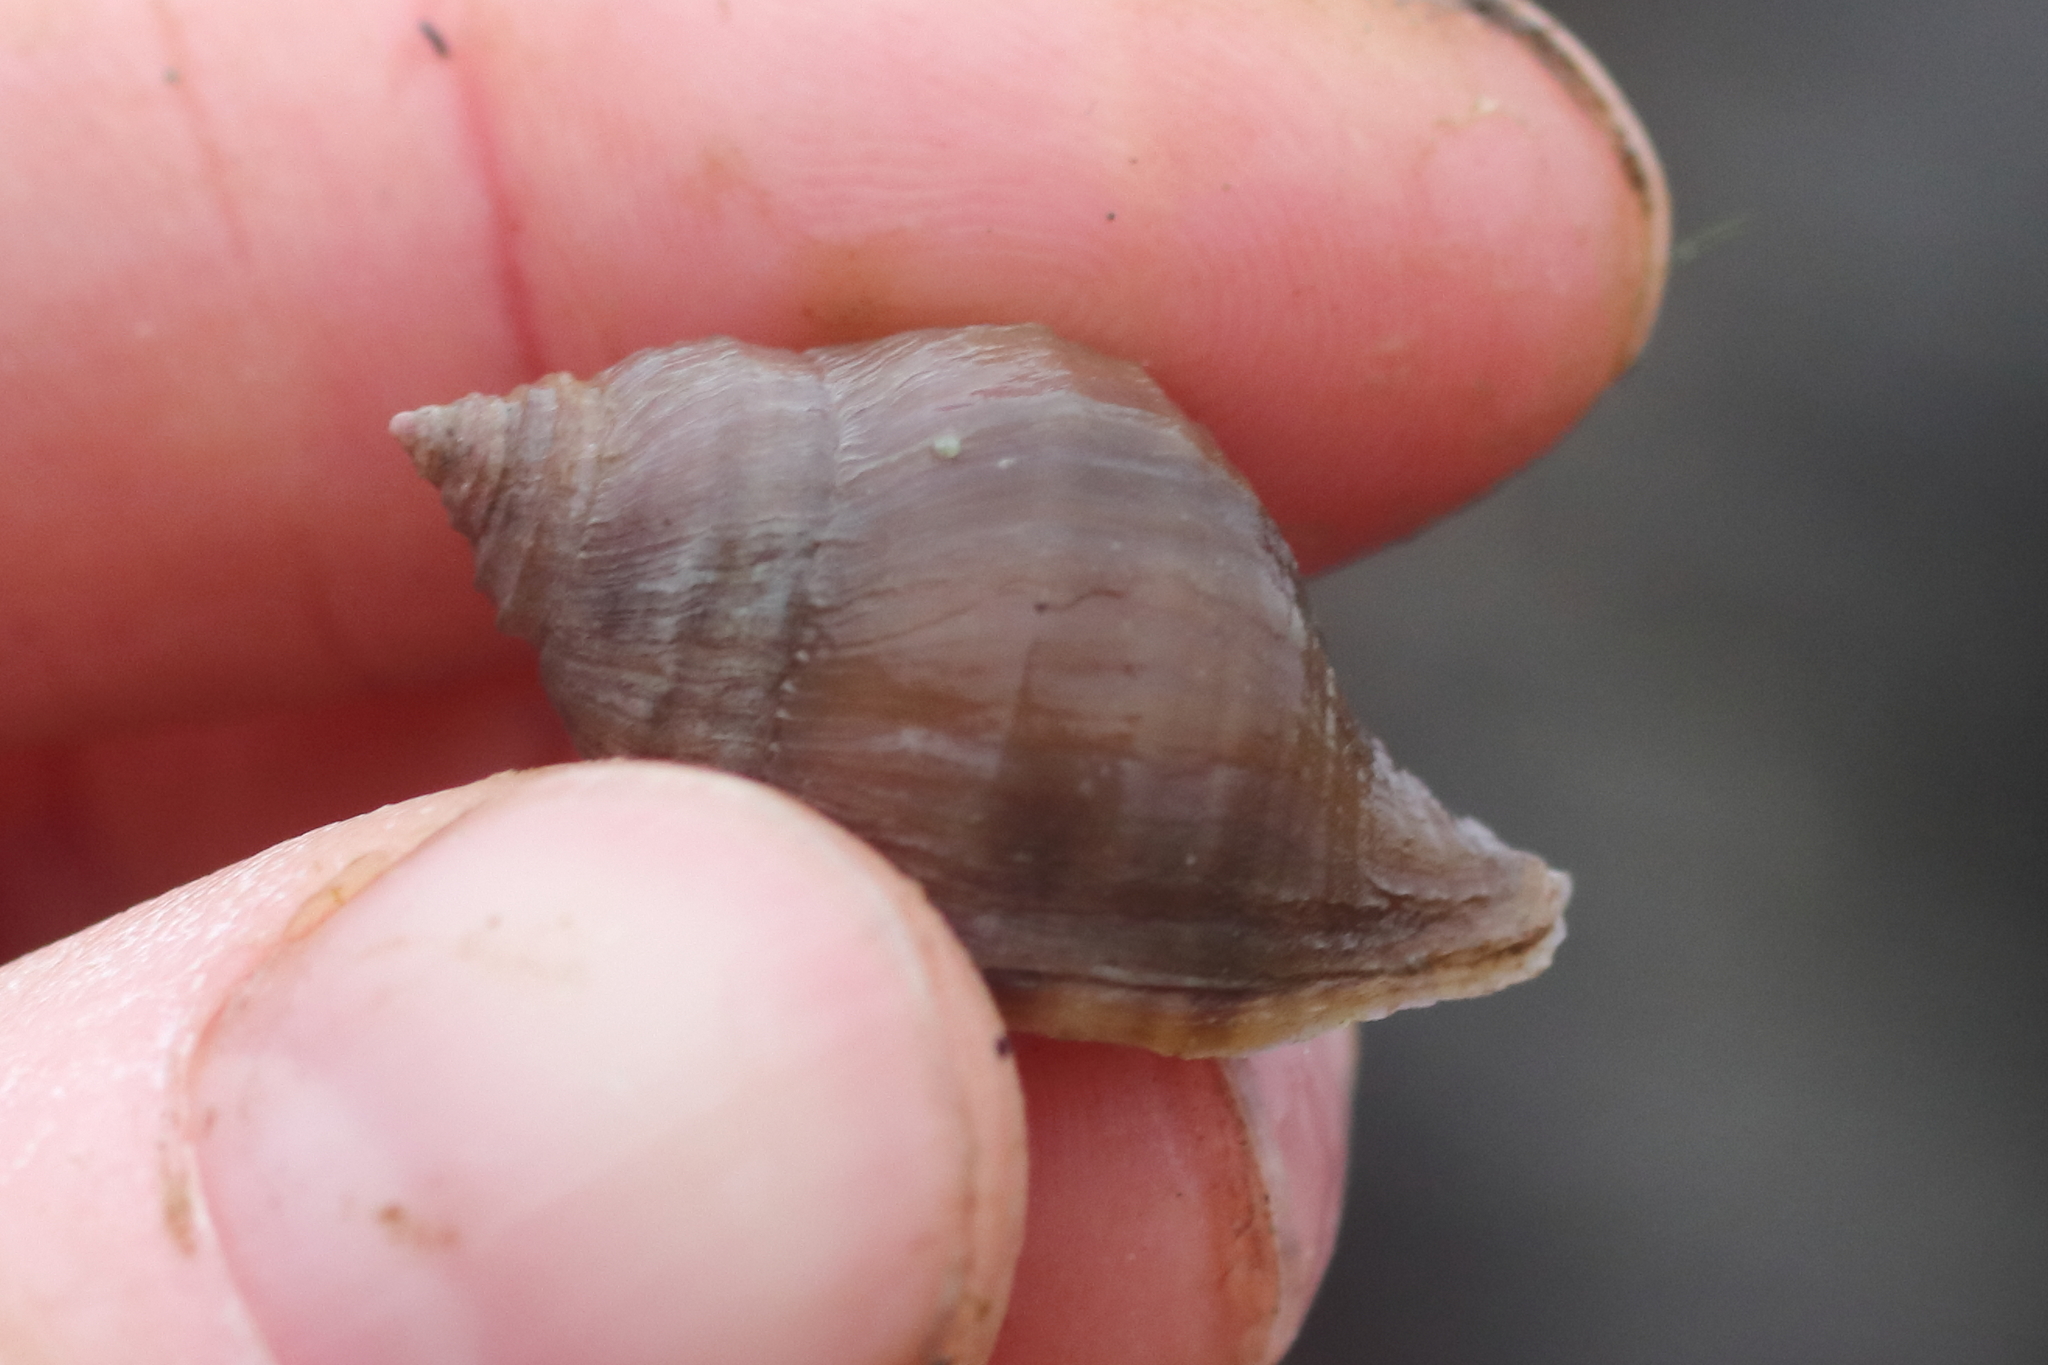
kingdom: Animalia
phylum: Mollusca
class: Gastropoda
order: Neogastropoda
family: Muricidae
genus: Nucella
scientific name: Nucella lamellosa
